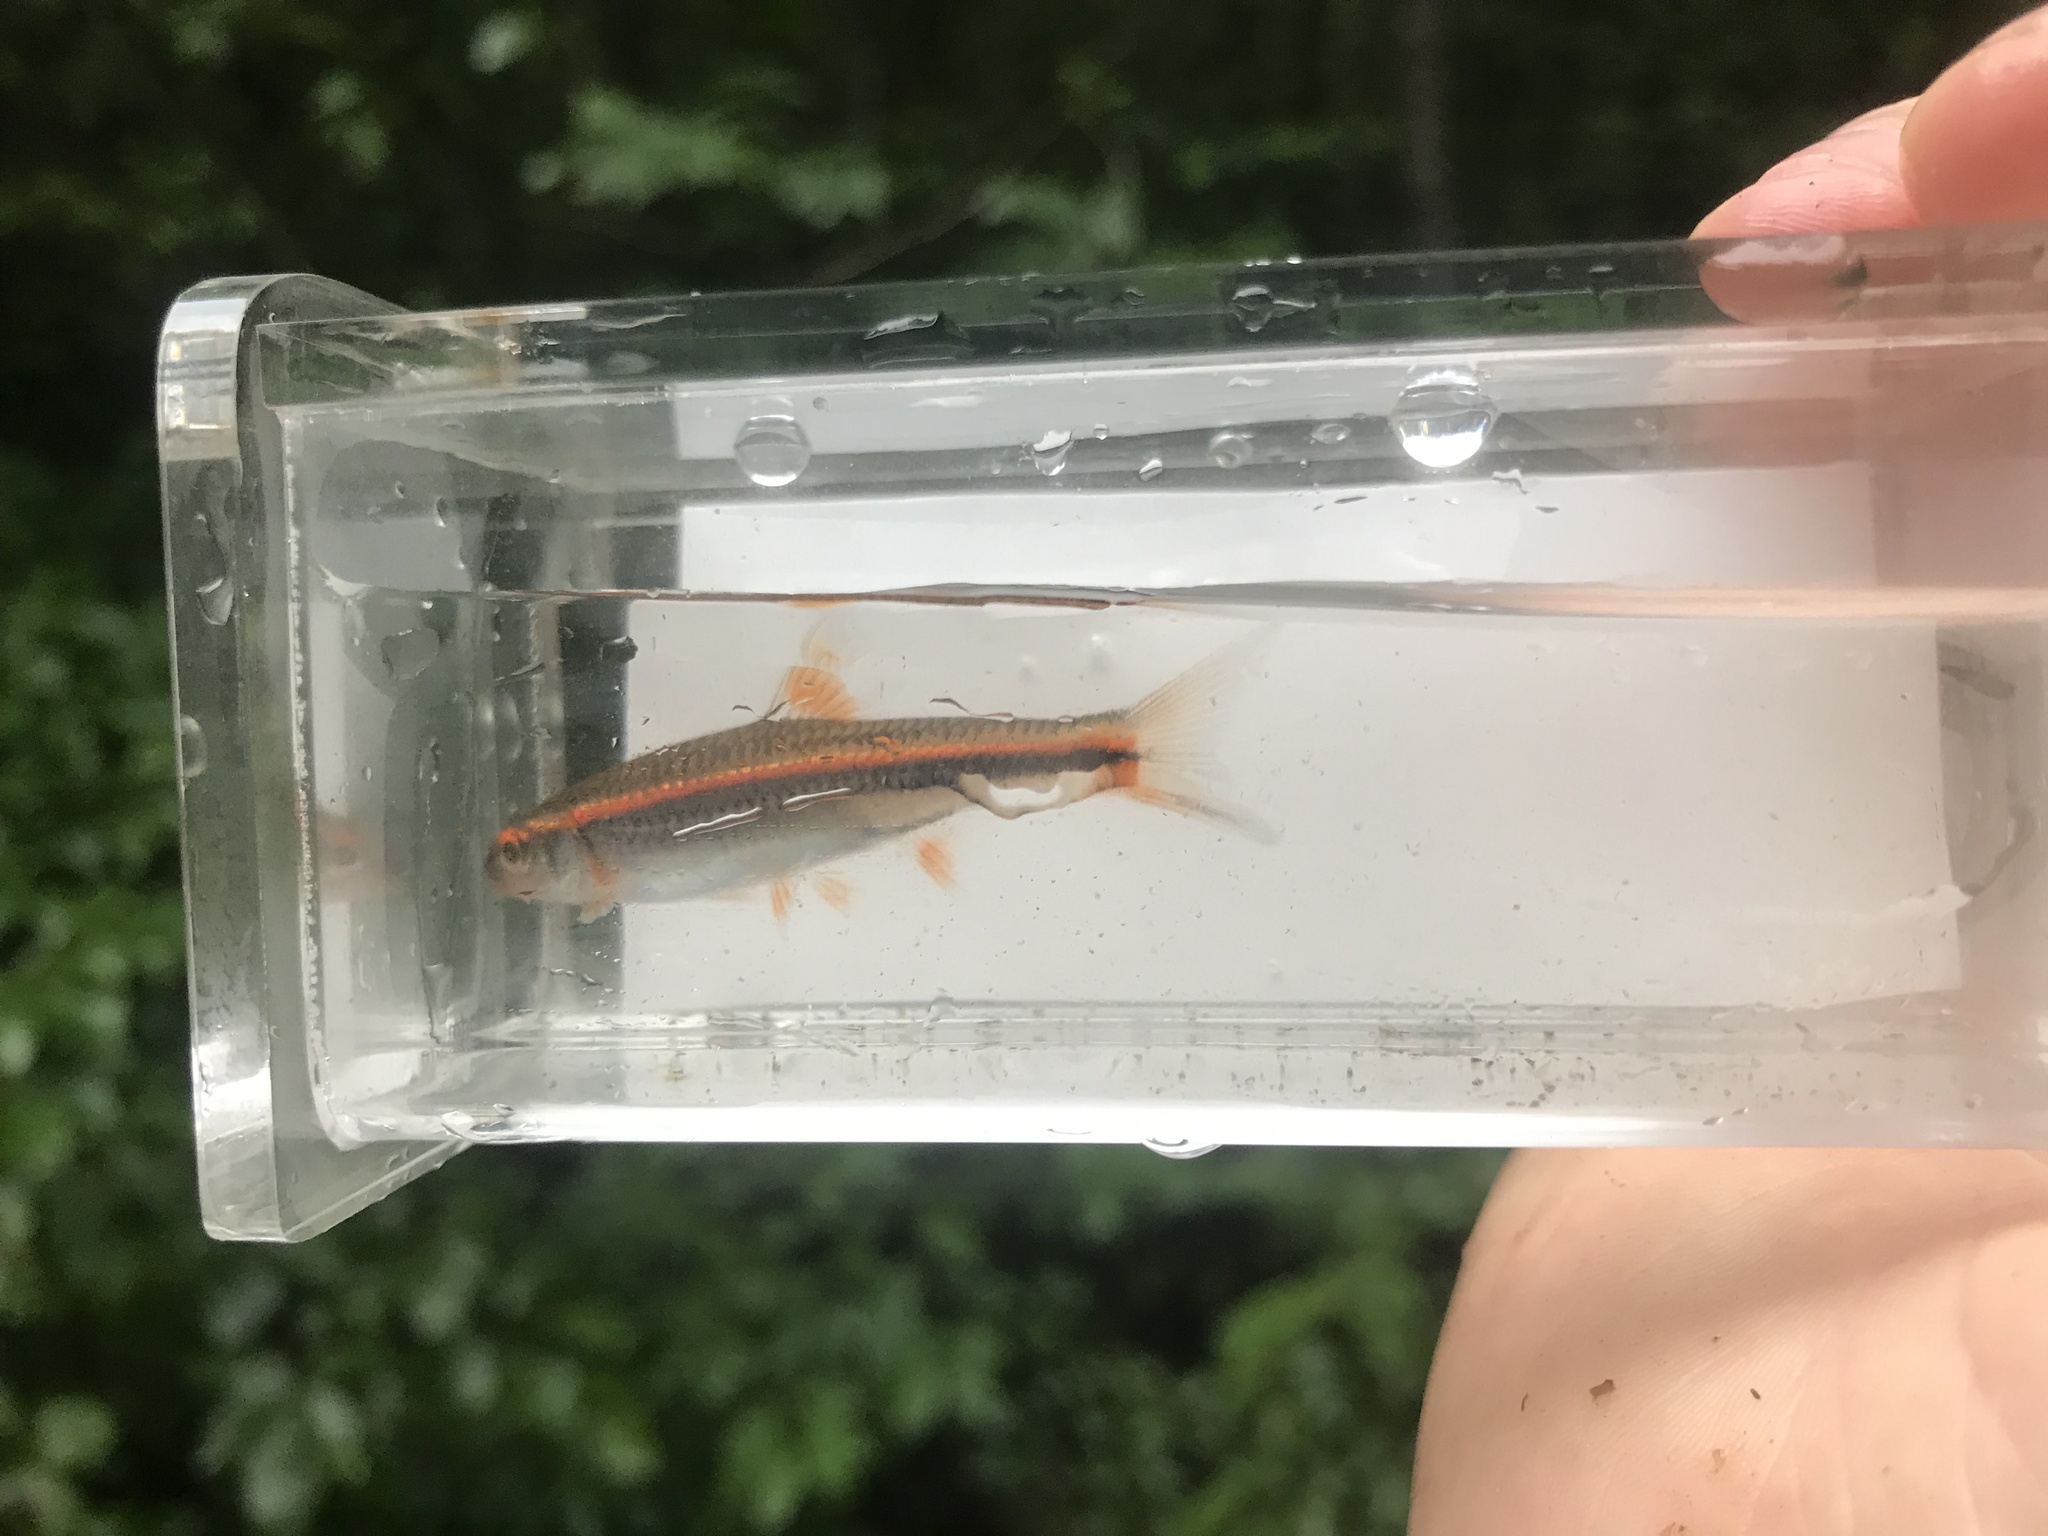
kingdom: Animalia
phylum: Chordata
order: Cypriniformes
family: Cyprinidae
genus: Notropis
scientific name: Notropis
